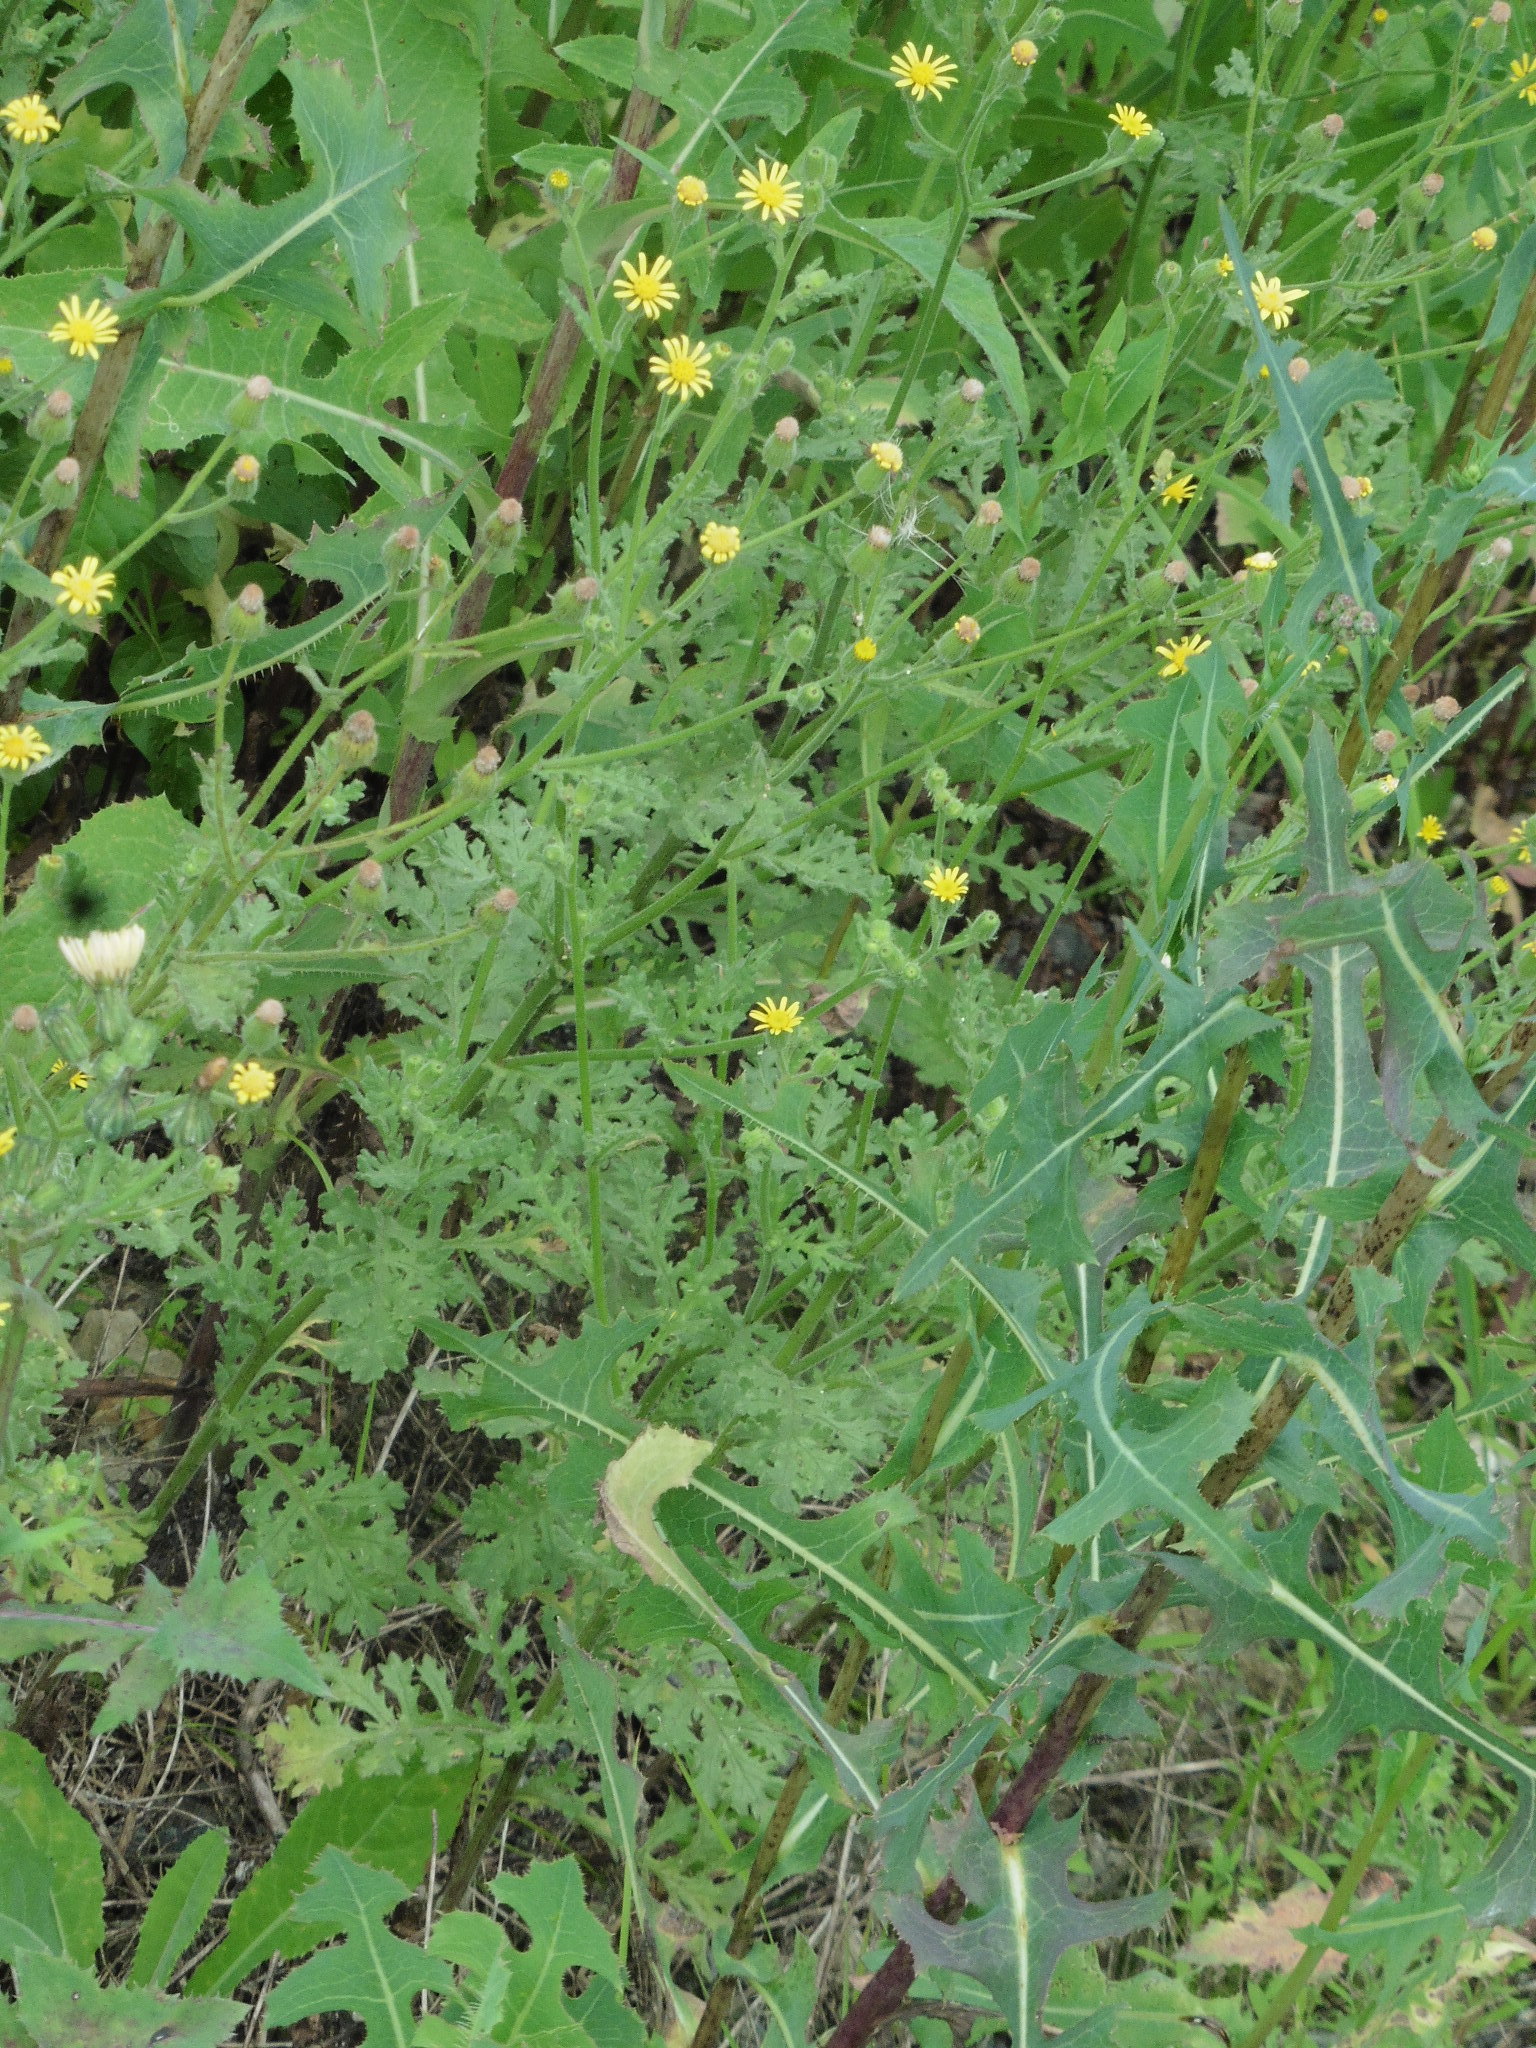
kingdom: Plantae
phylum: Tracheophyta
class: Magnoliopsida
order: Asterales
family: Asteraceae
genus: Senecio
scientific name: Senecio viscosus
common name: Sticky groundsel
